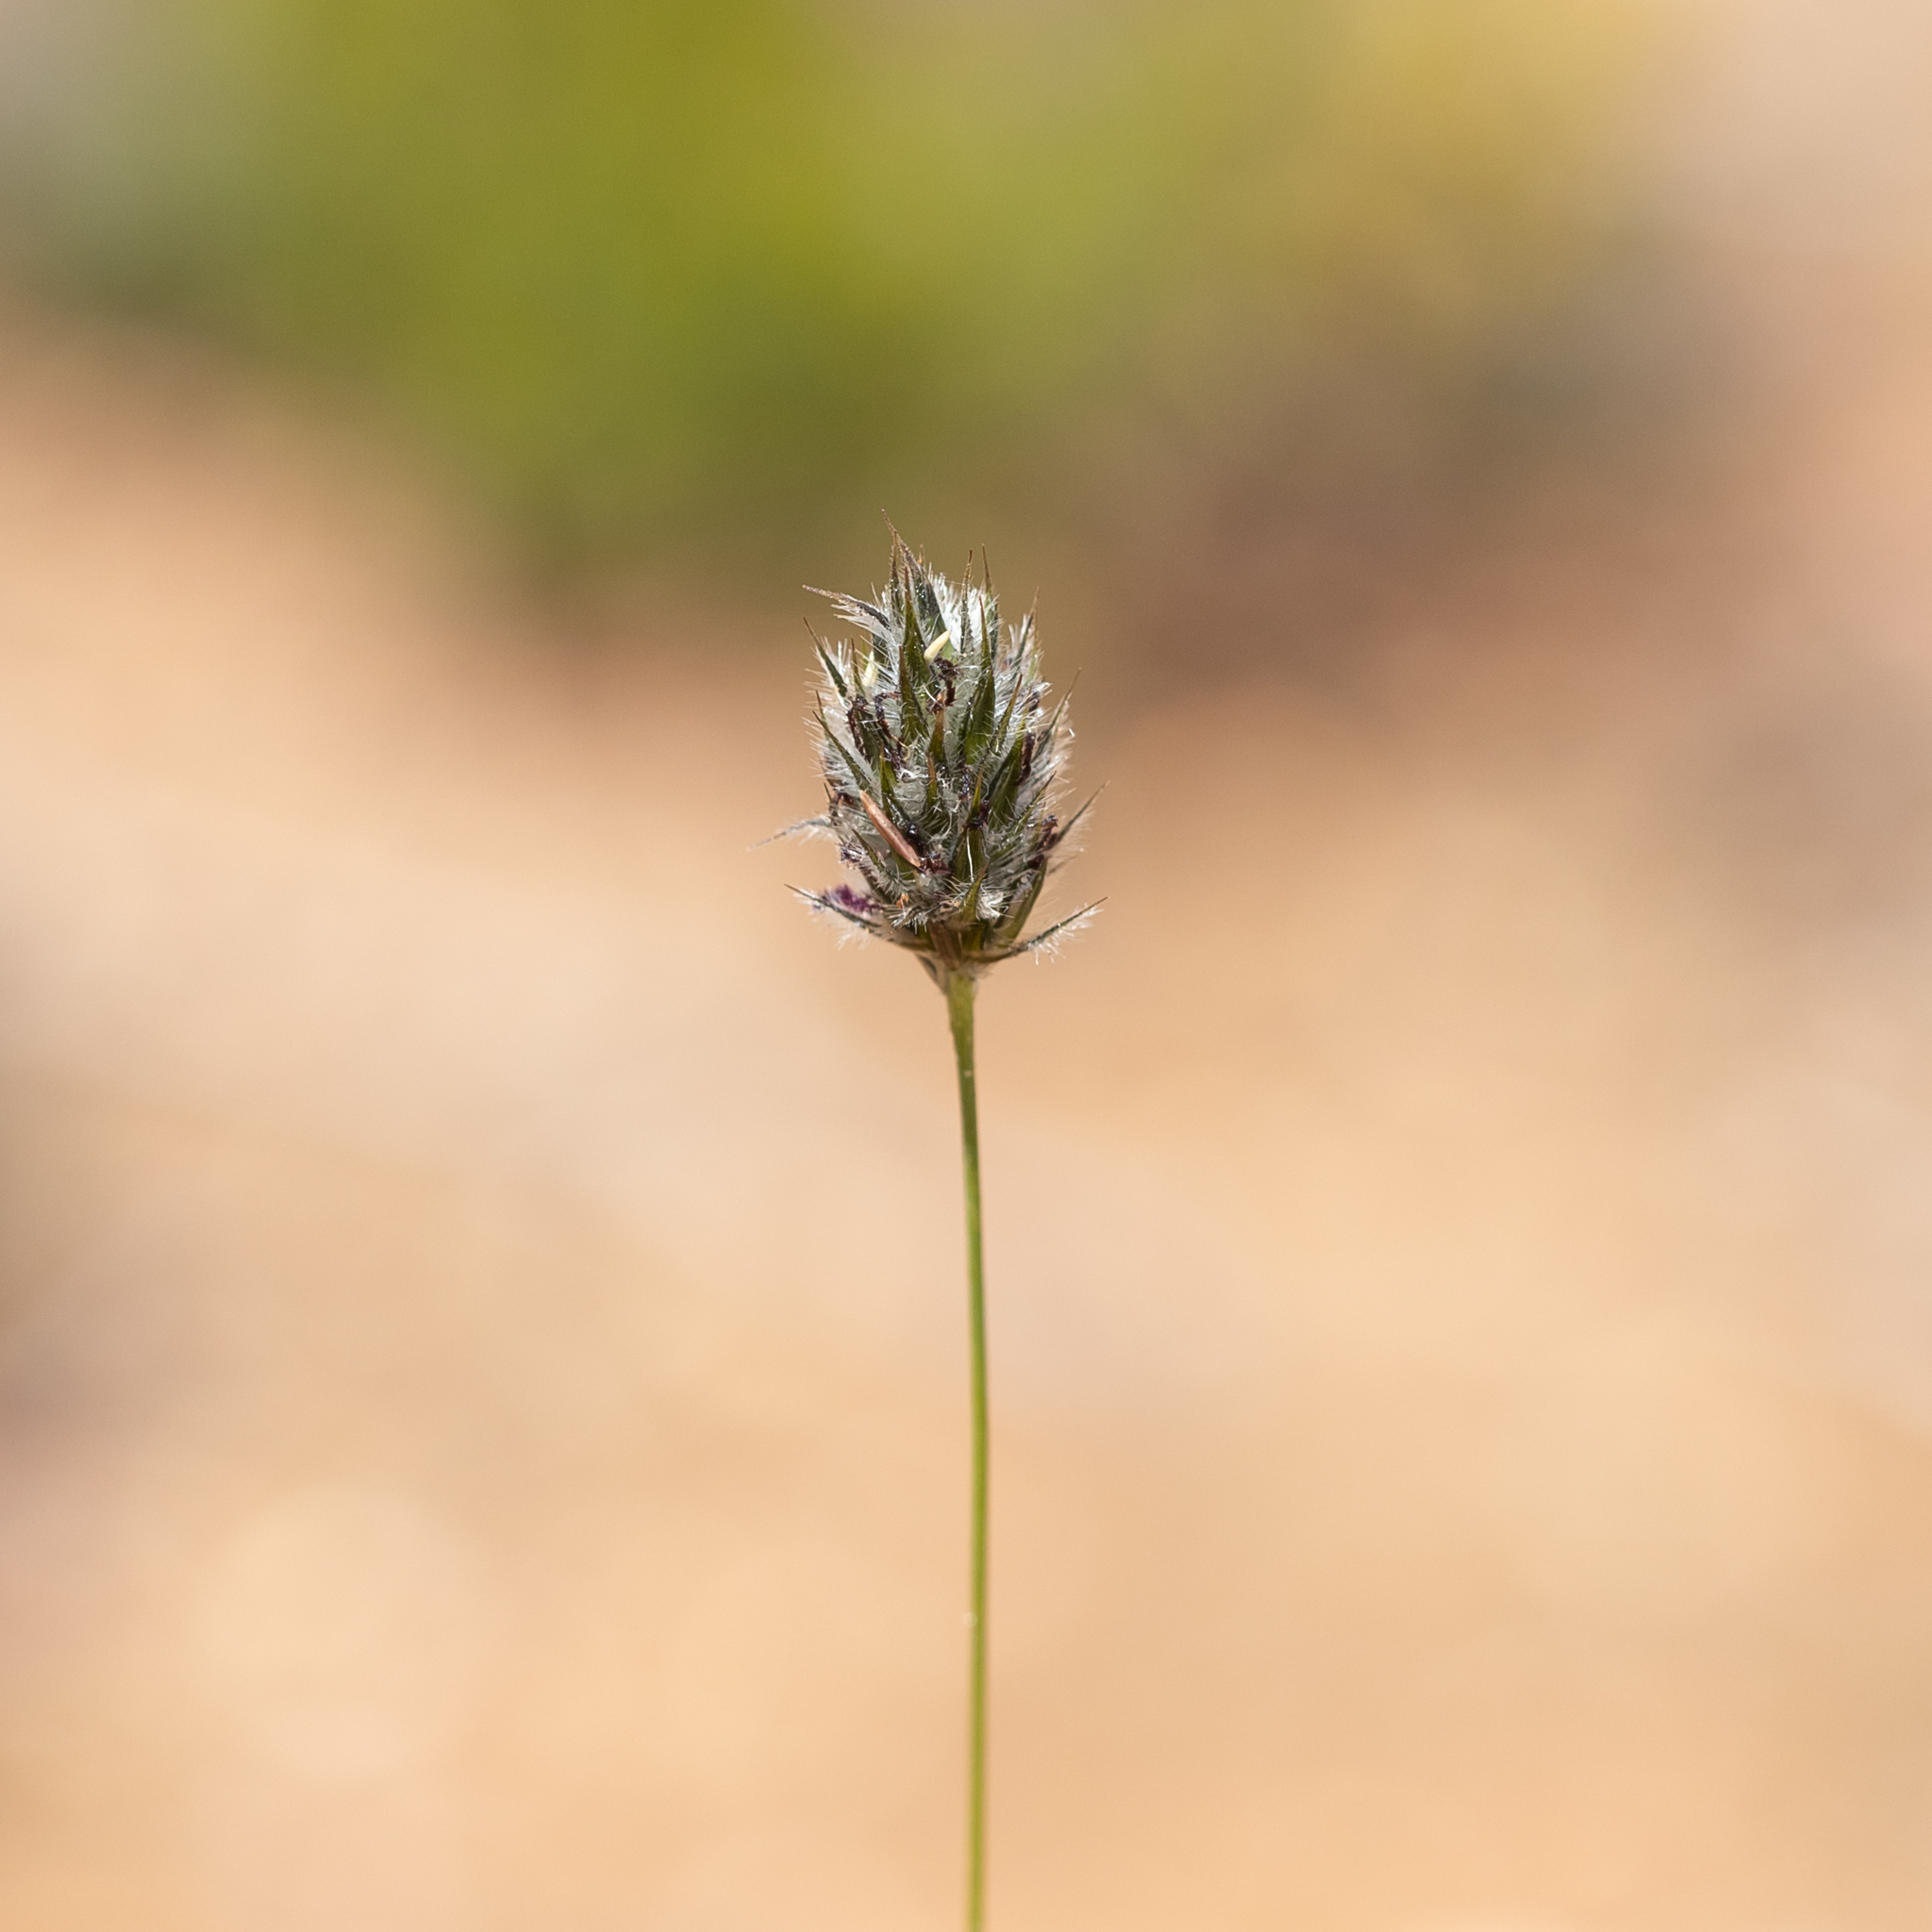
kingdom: Plantae
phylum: Tracheophyta
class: Liliopsida
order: Poales
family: Poaceae
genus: Neurachne
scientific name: Neurachne alopecuroidea
